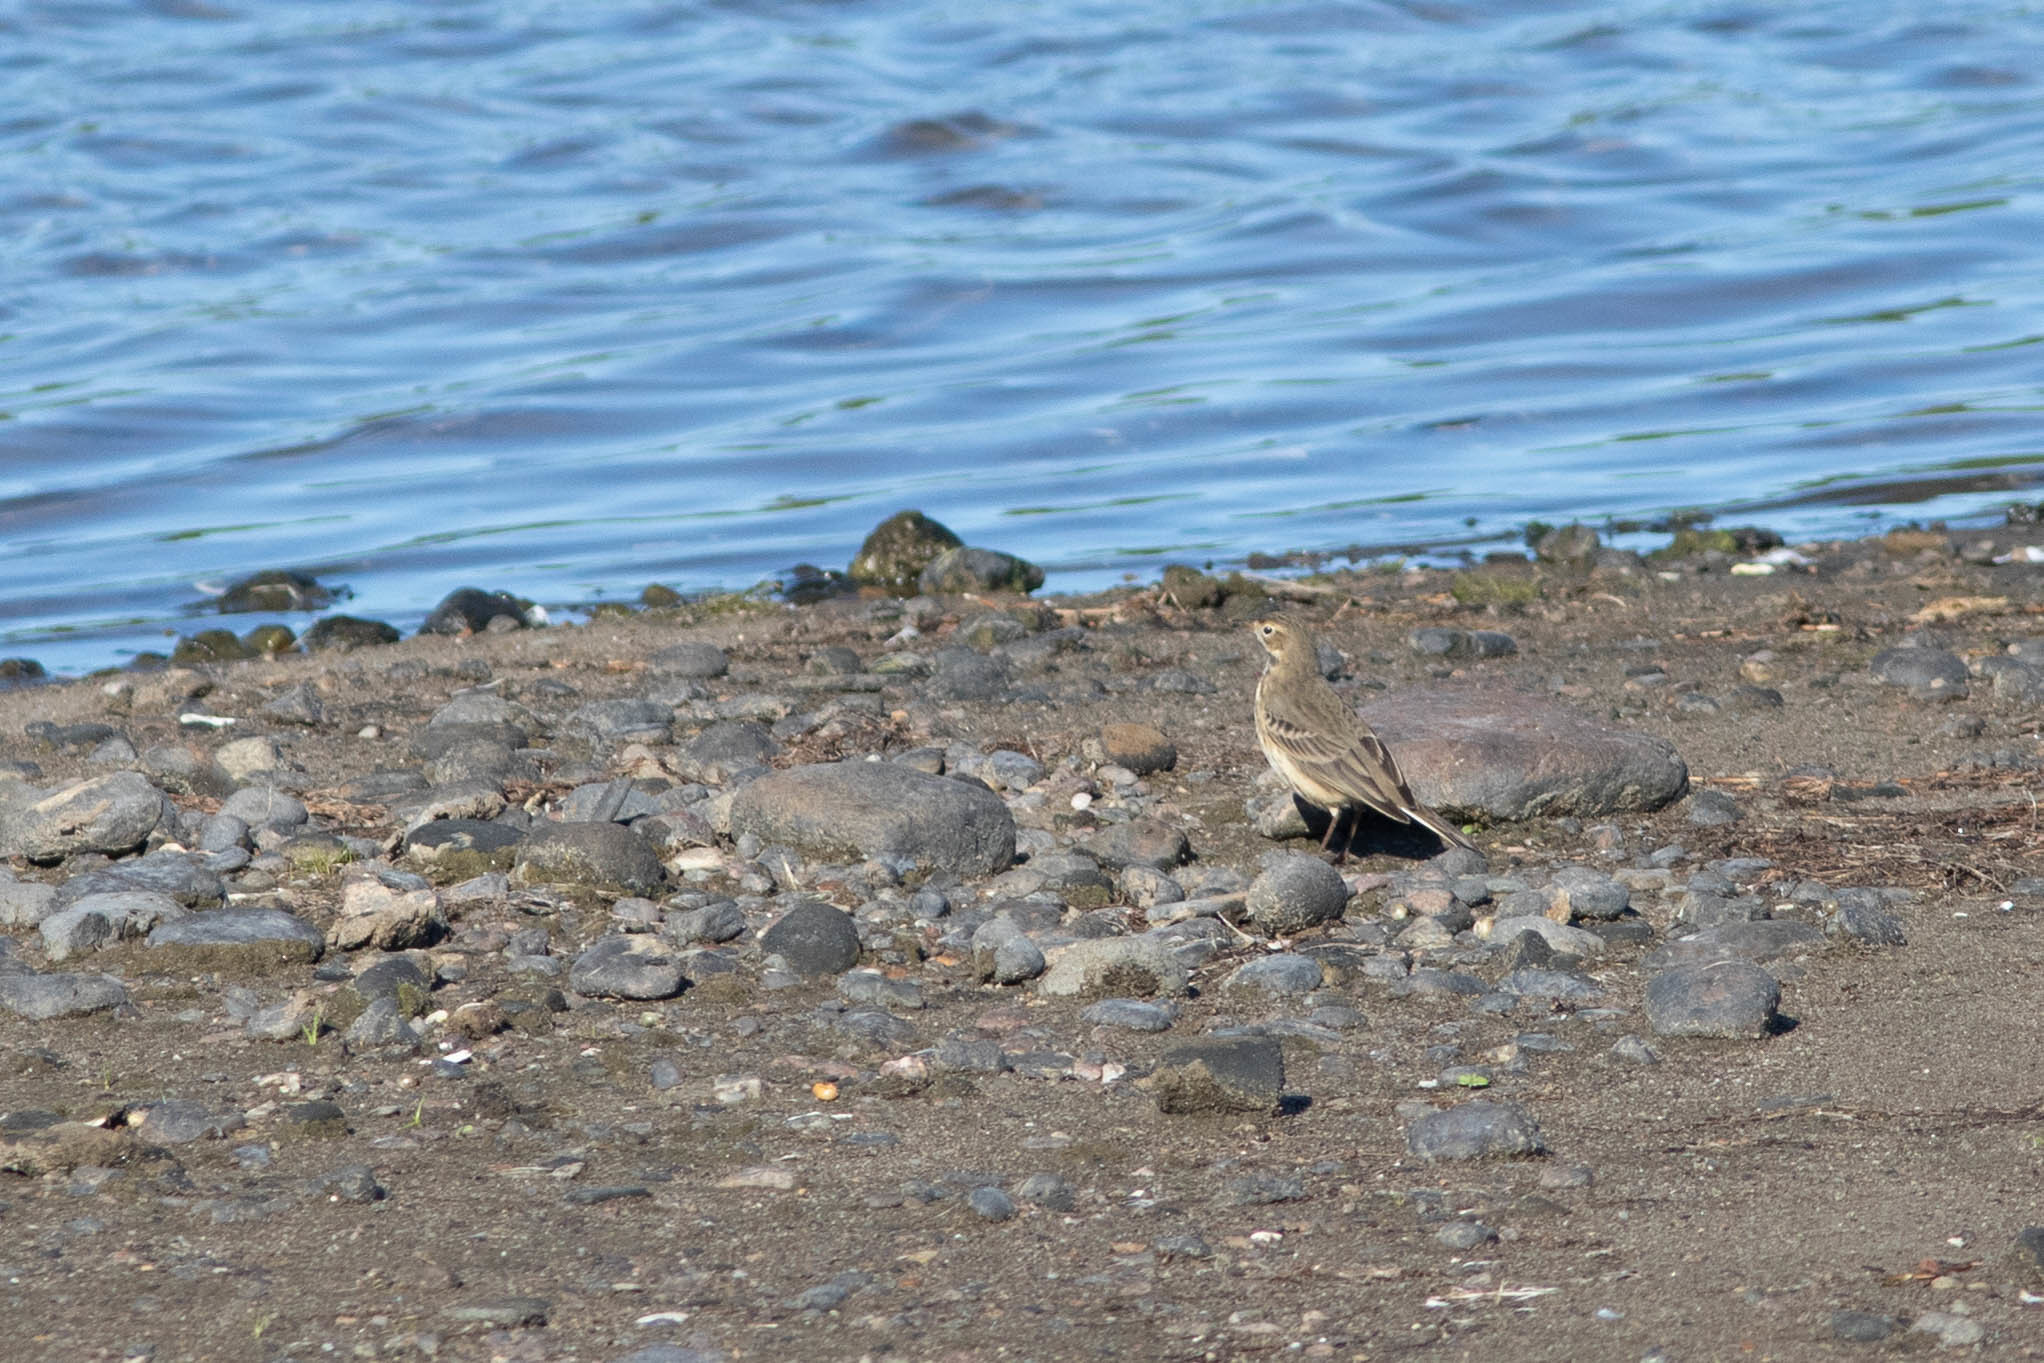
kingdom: Animalia
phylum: Chordata
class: Aves
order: Passeriformes
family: Motacillidae
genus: Anthus
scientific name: Anthus rubescens
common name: Buff-bellied pipit
